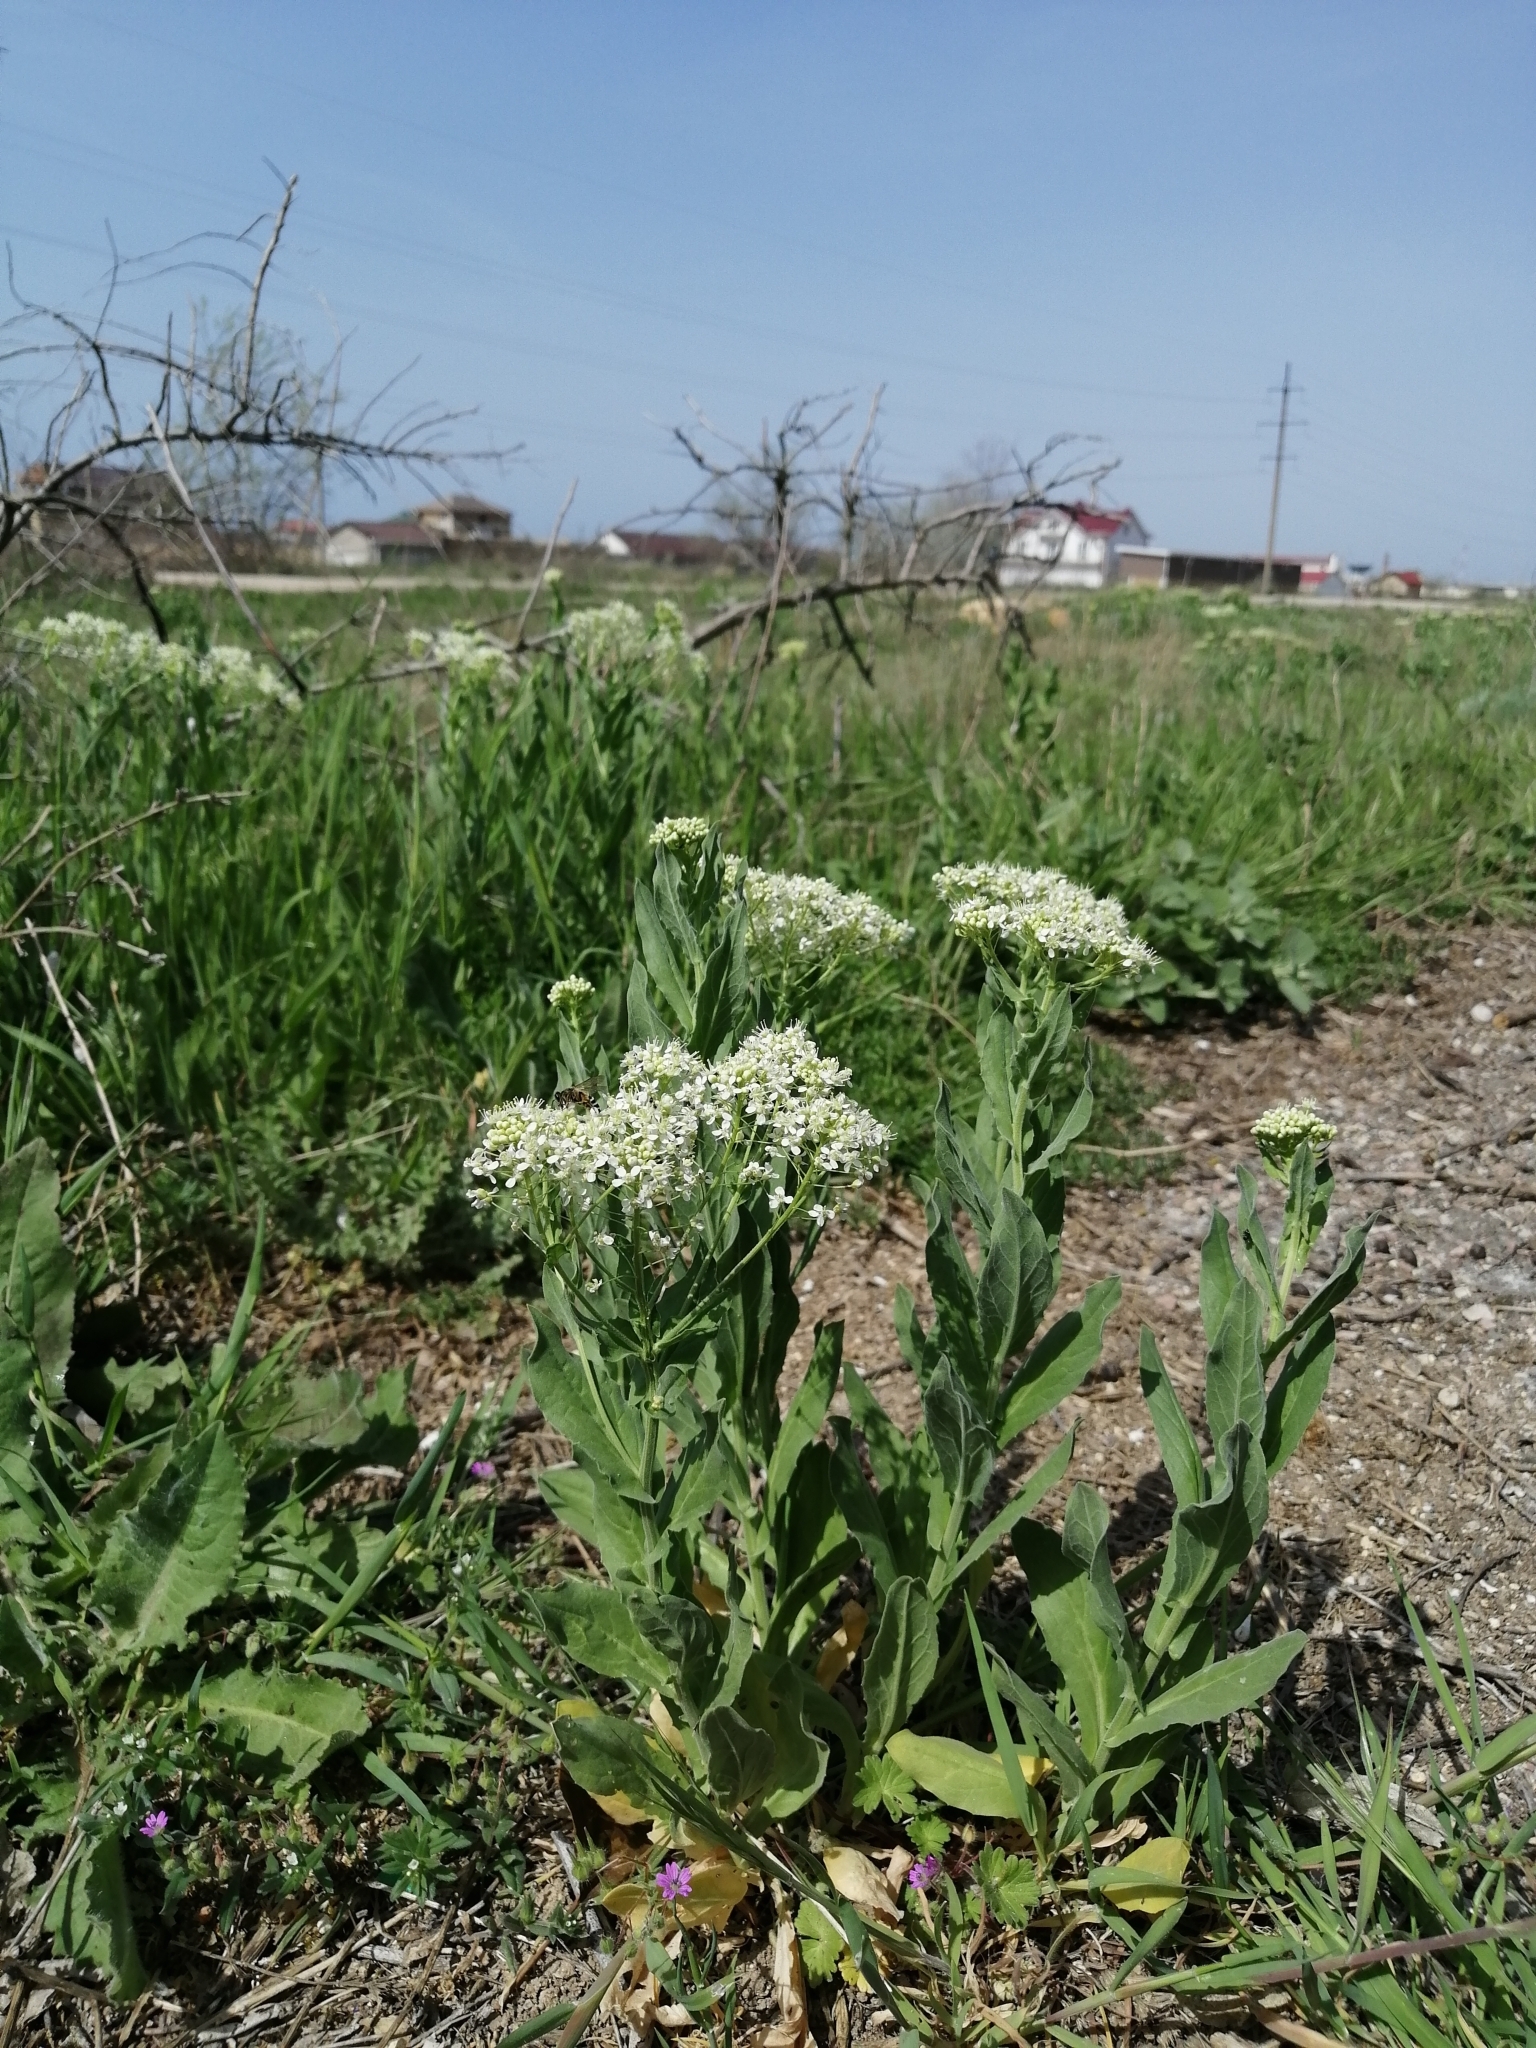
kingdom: Plantae
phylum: Tracheophyta
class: Magnoliopsida
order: Brassicales
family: Brassicaceae
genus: Lepidium
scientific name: Lepidium draba
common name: Hoary cress
